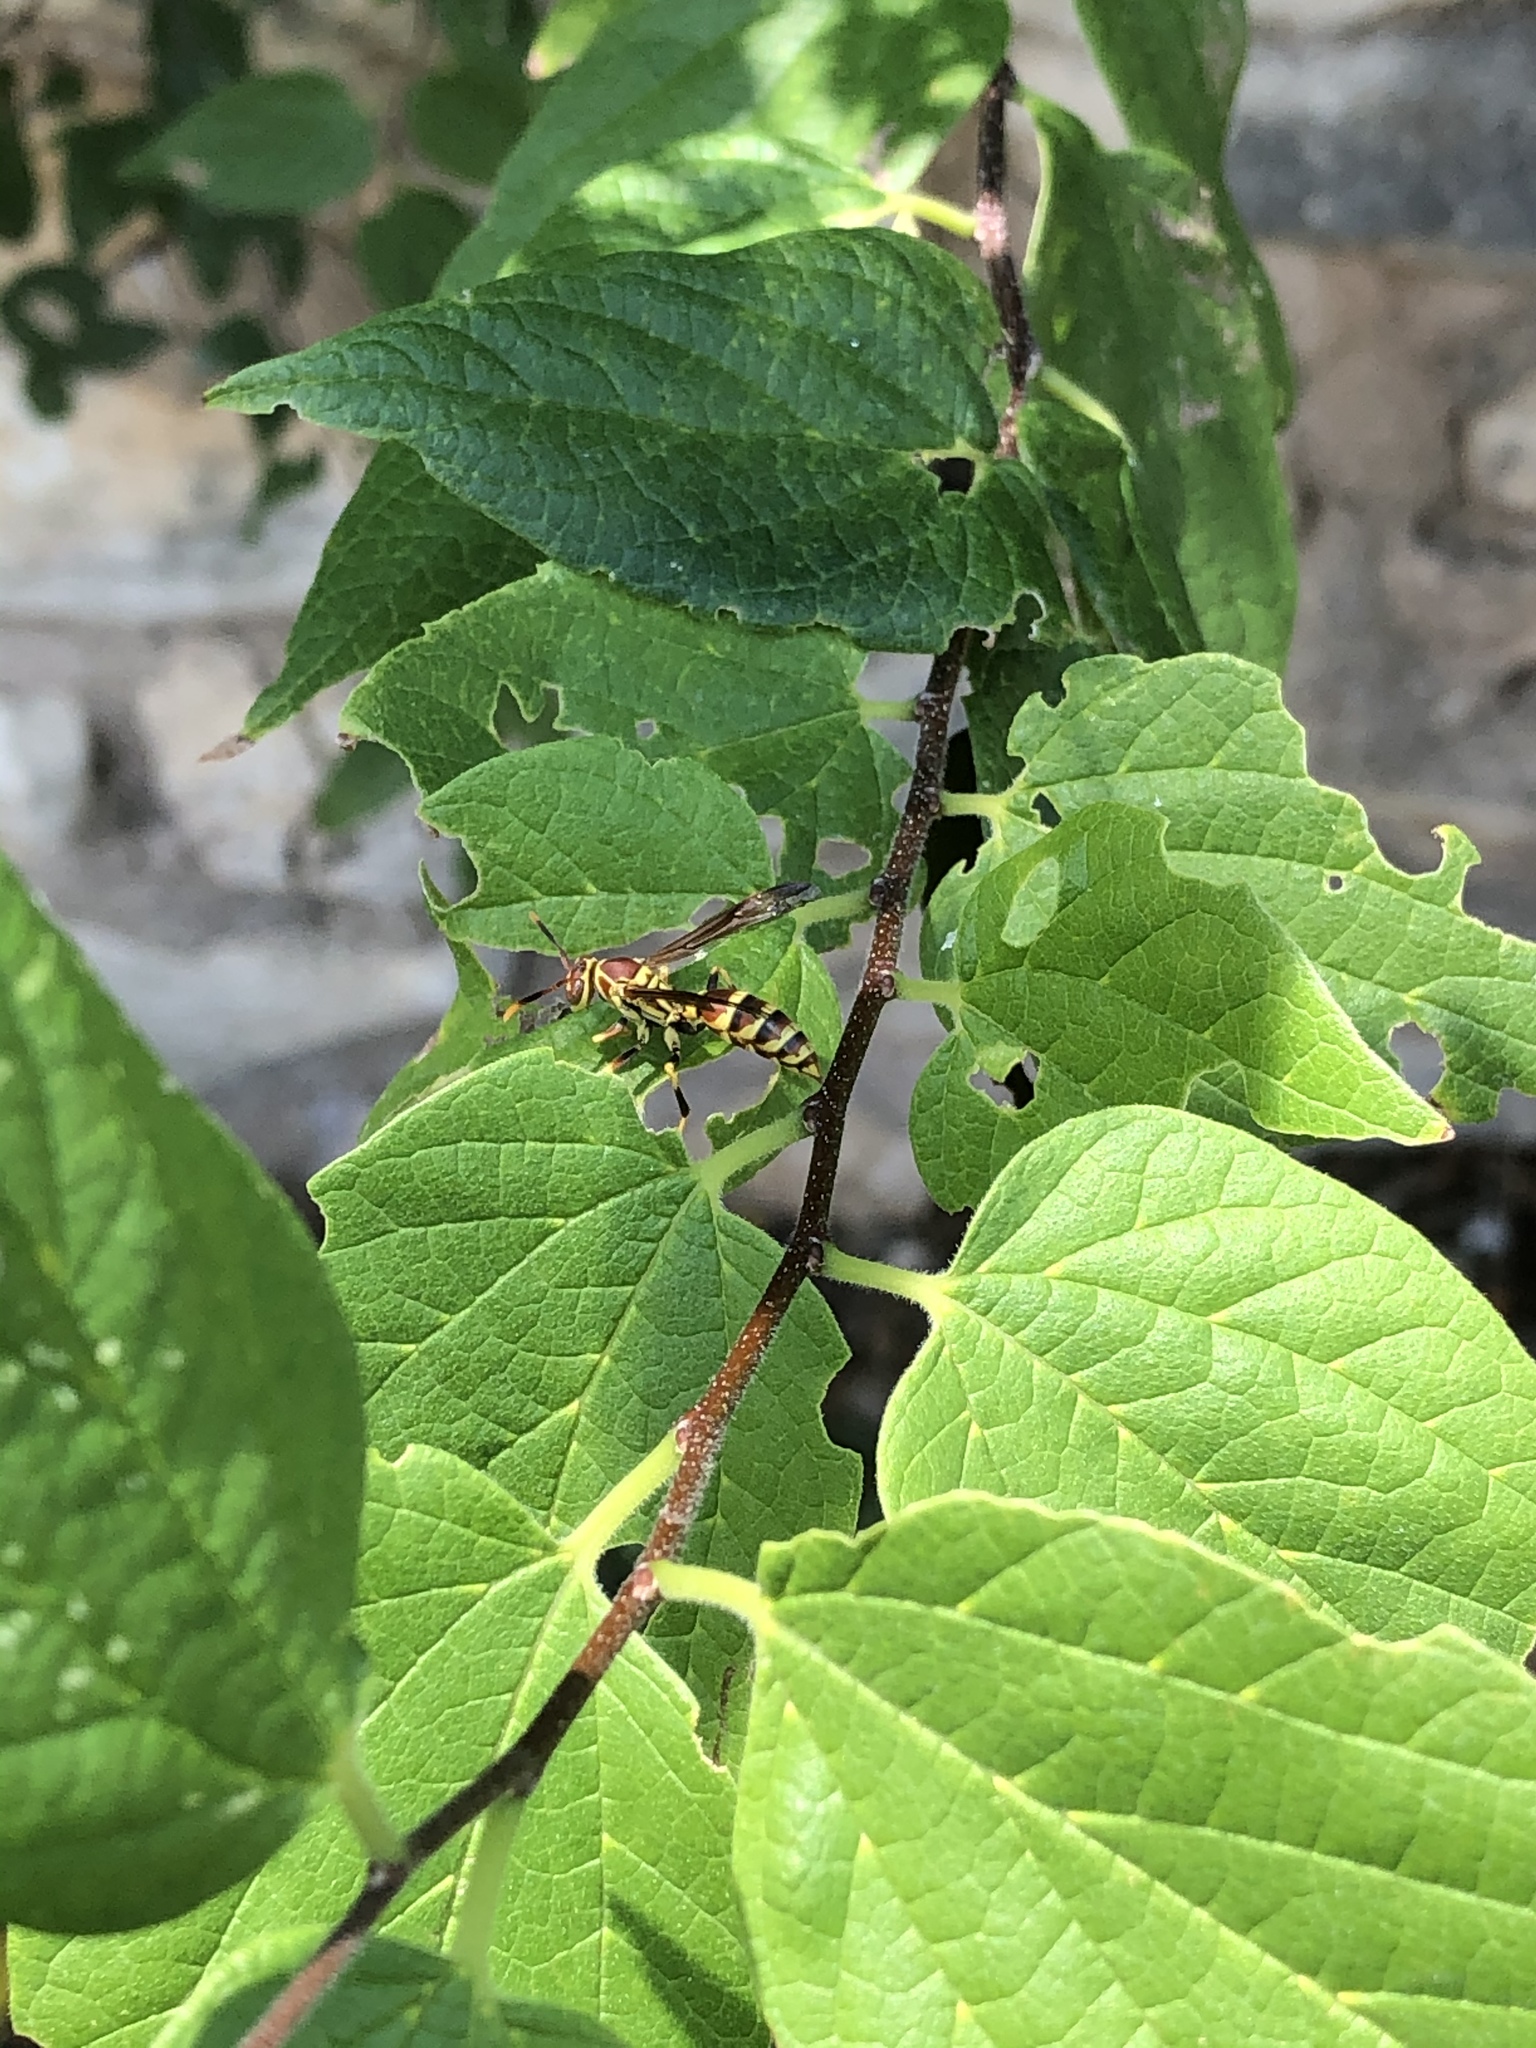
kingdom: Animalia
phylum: Arthropoda
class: Insecta
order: Hymenoptera
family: Eumenidae
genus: Polistes
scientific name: Polistes exclamans
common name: Paper wasp
